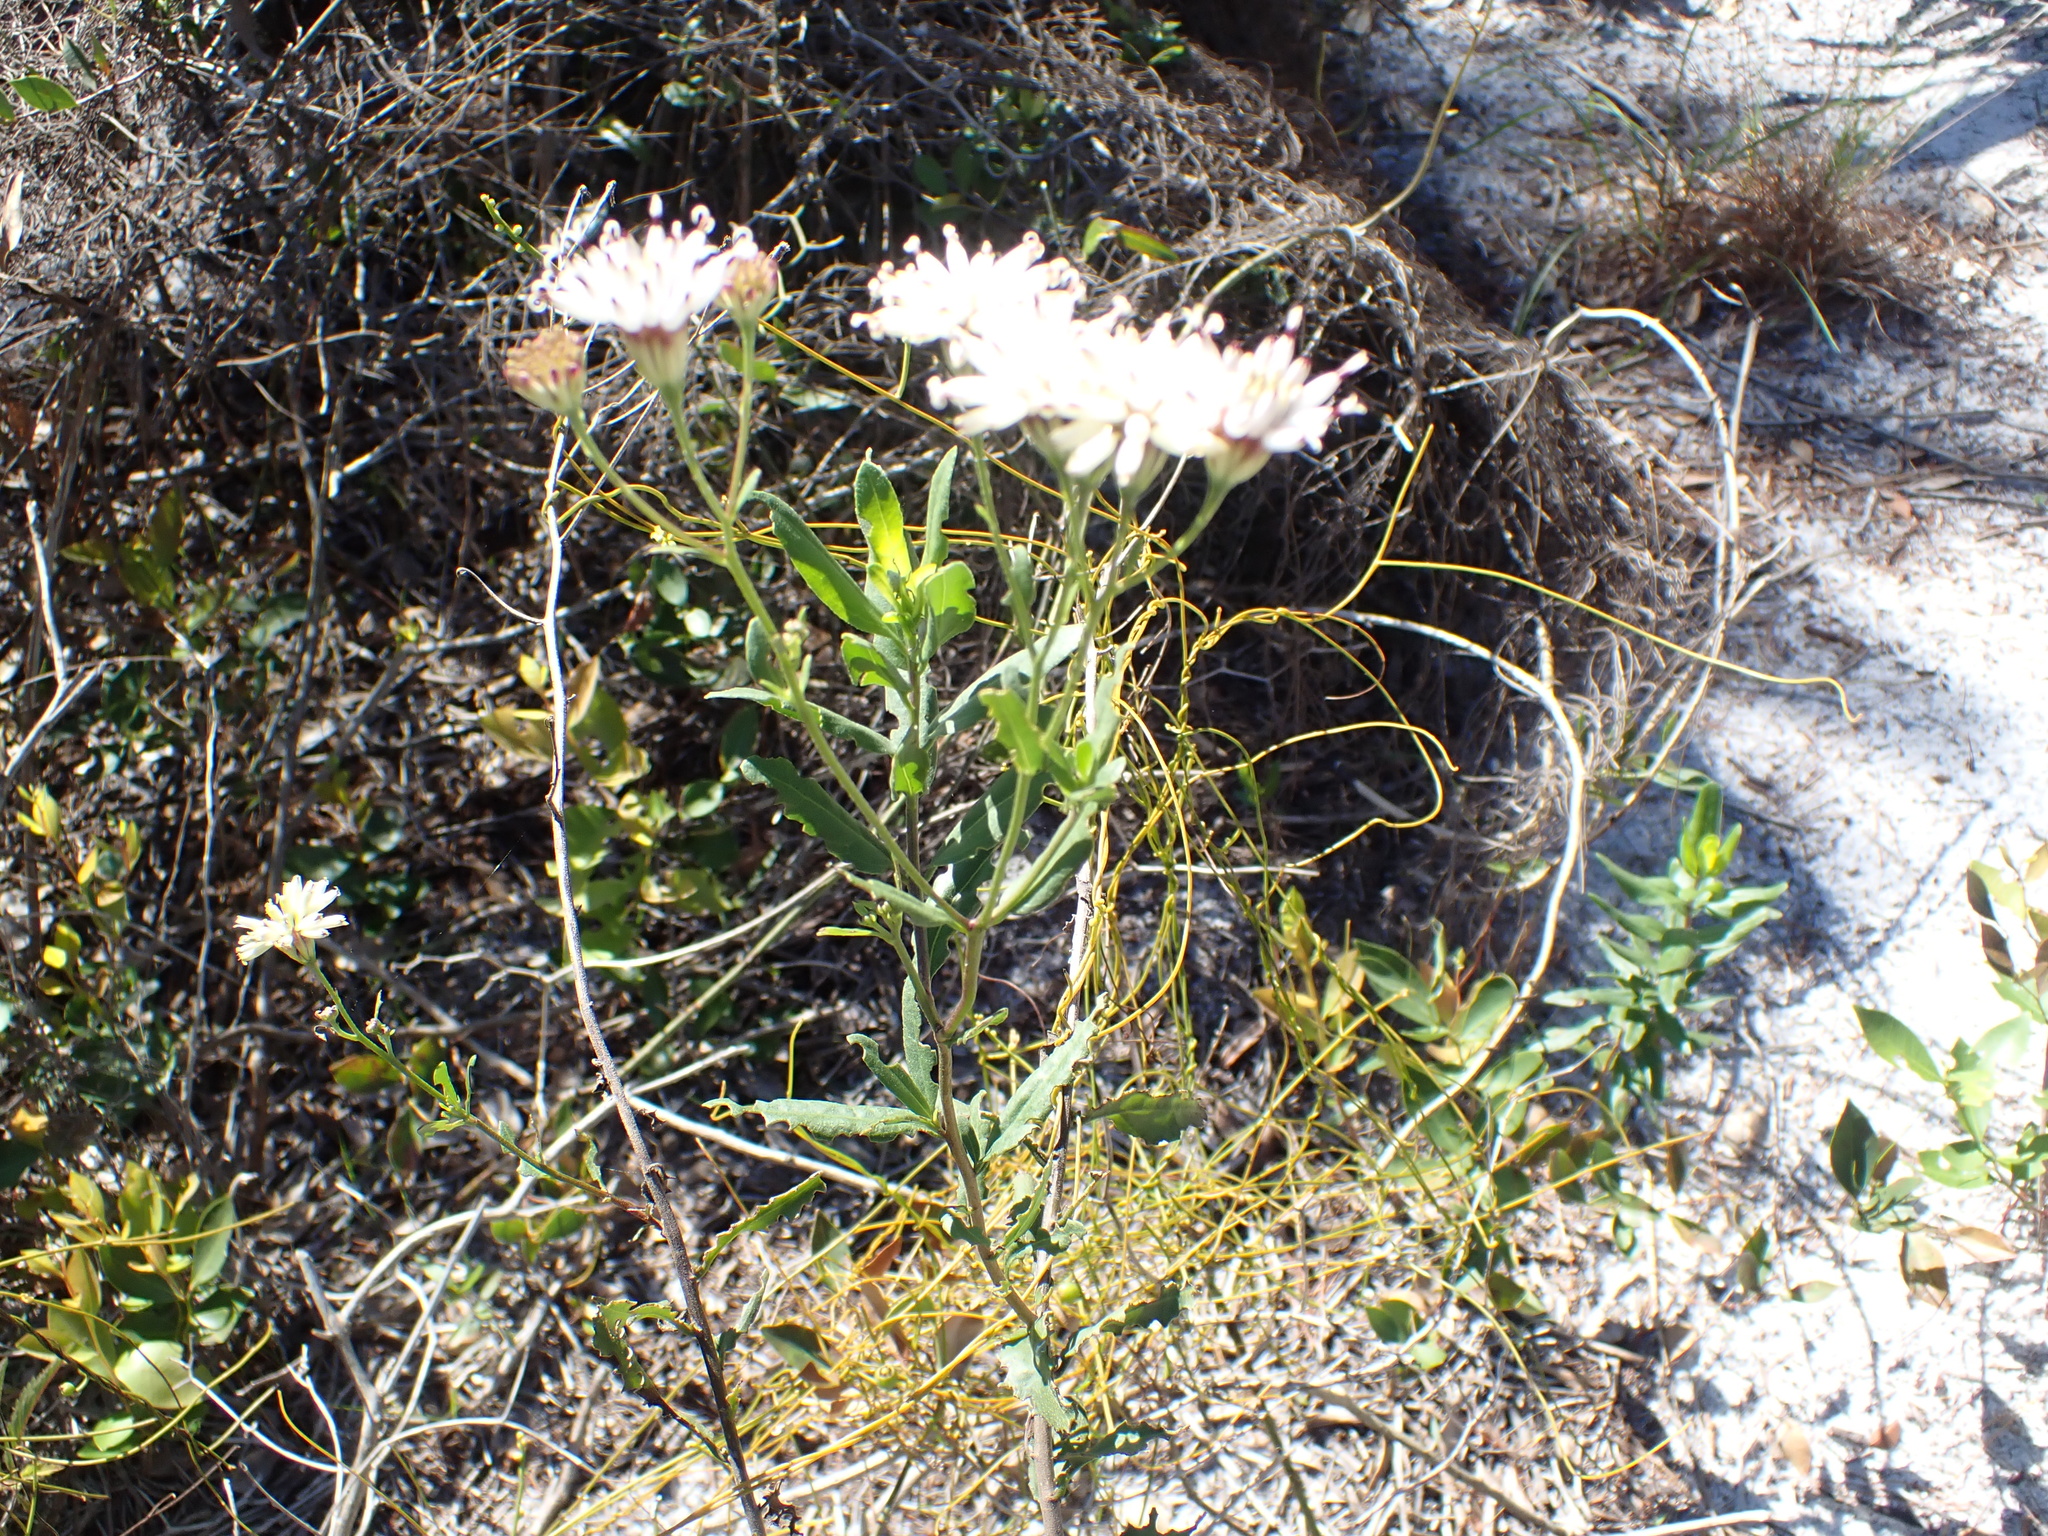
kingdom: Plantae
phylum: Tracheophyta
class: Magnoliopsida
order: Asterales
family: Asteraceae
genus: Palafoxia
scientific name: Palafoxia feayi
